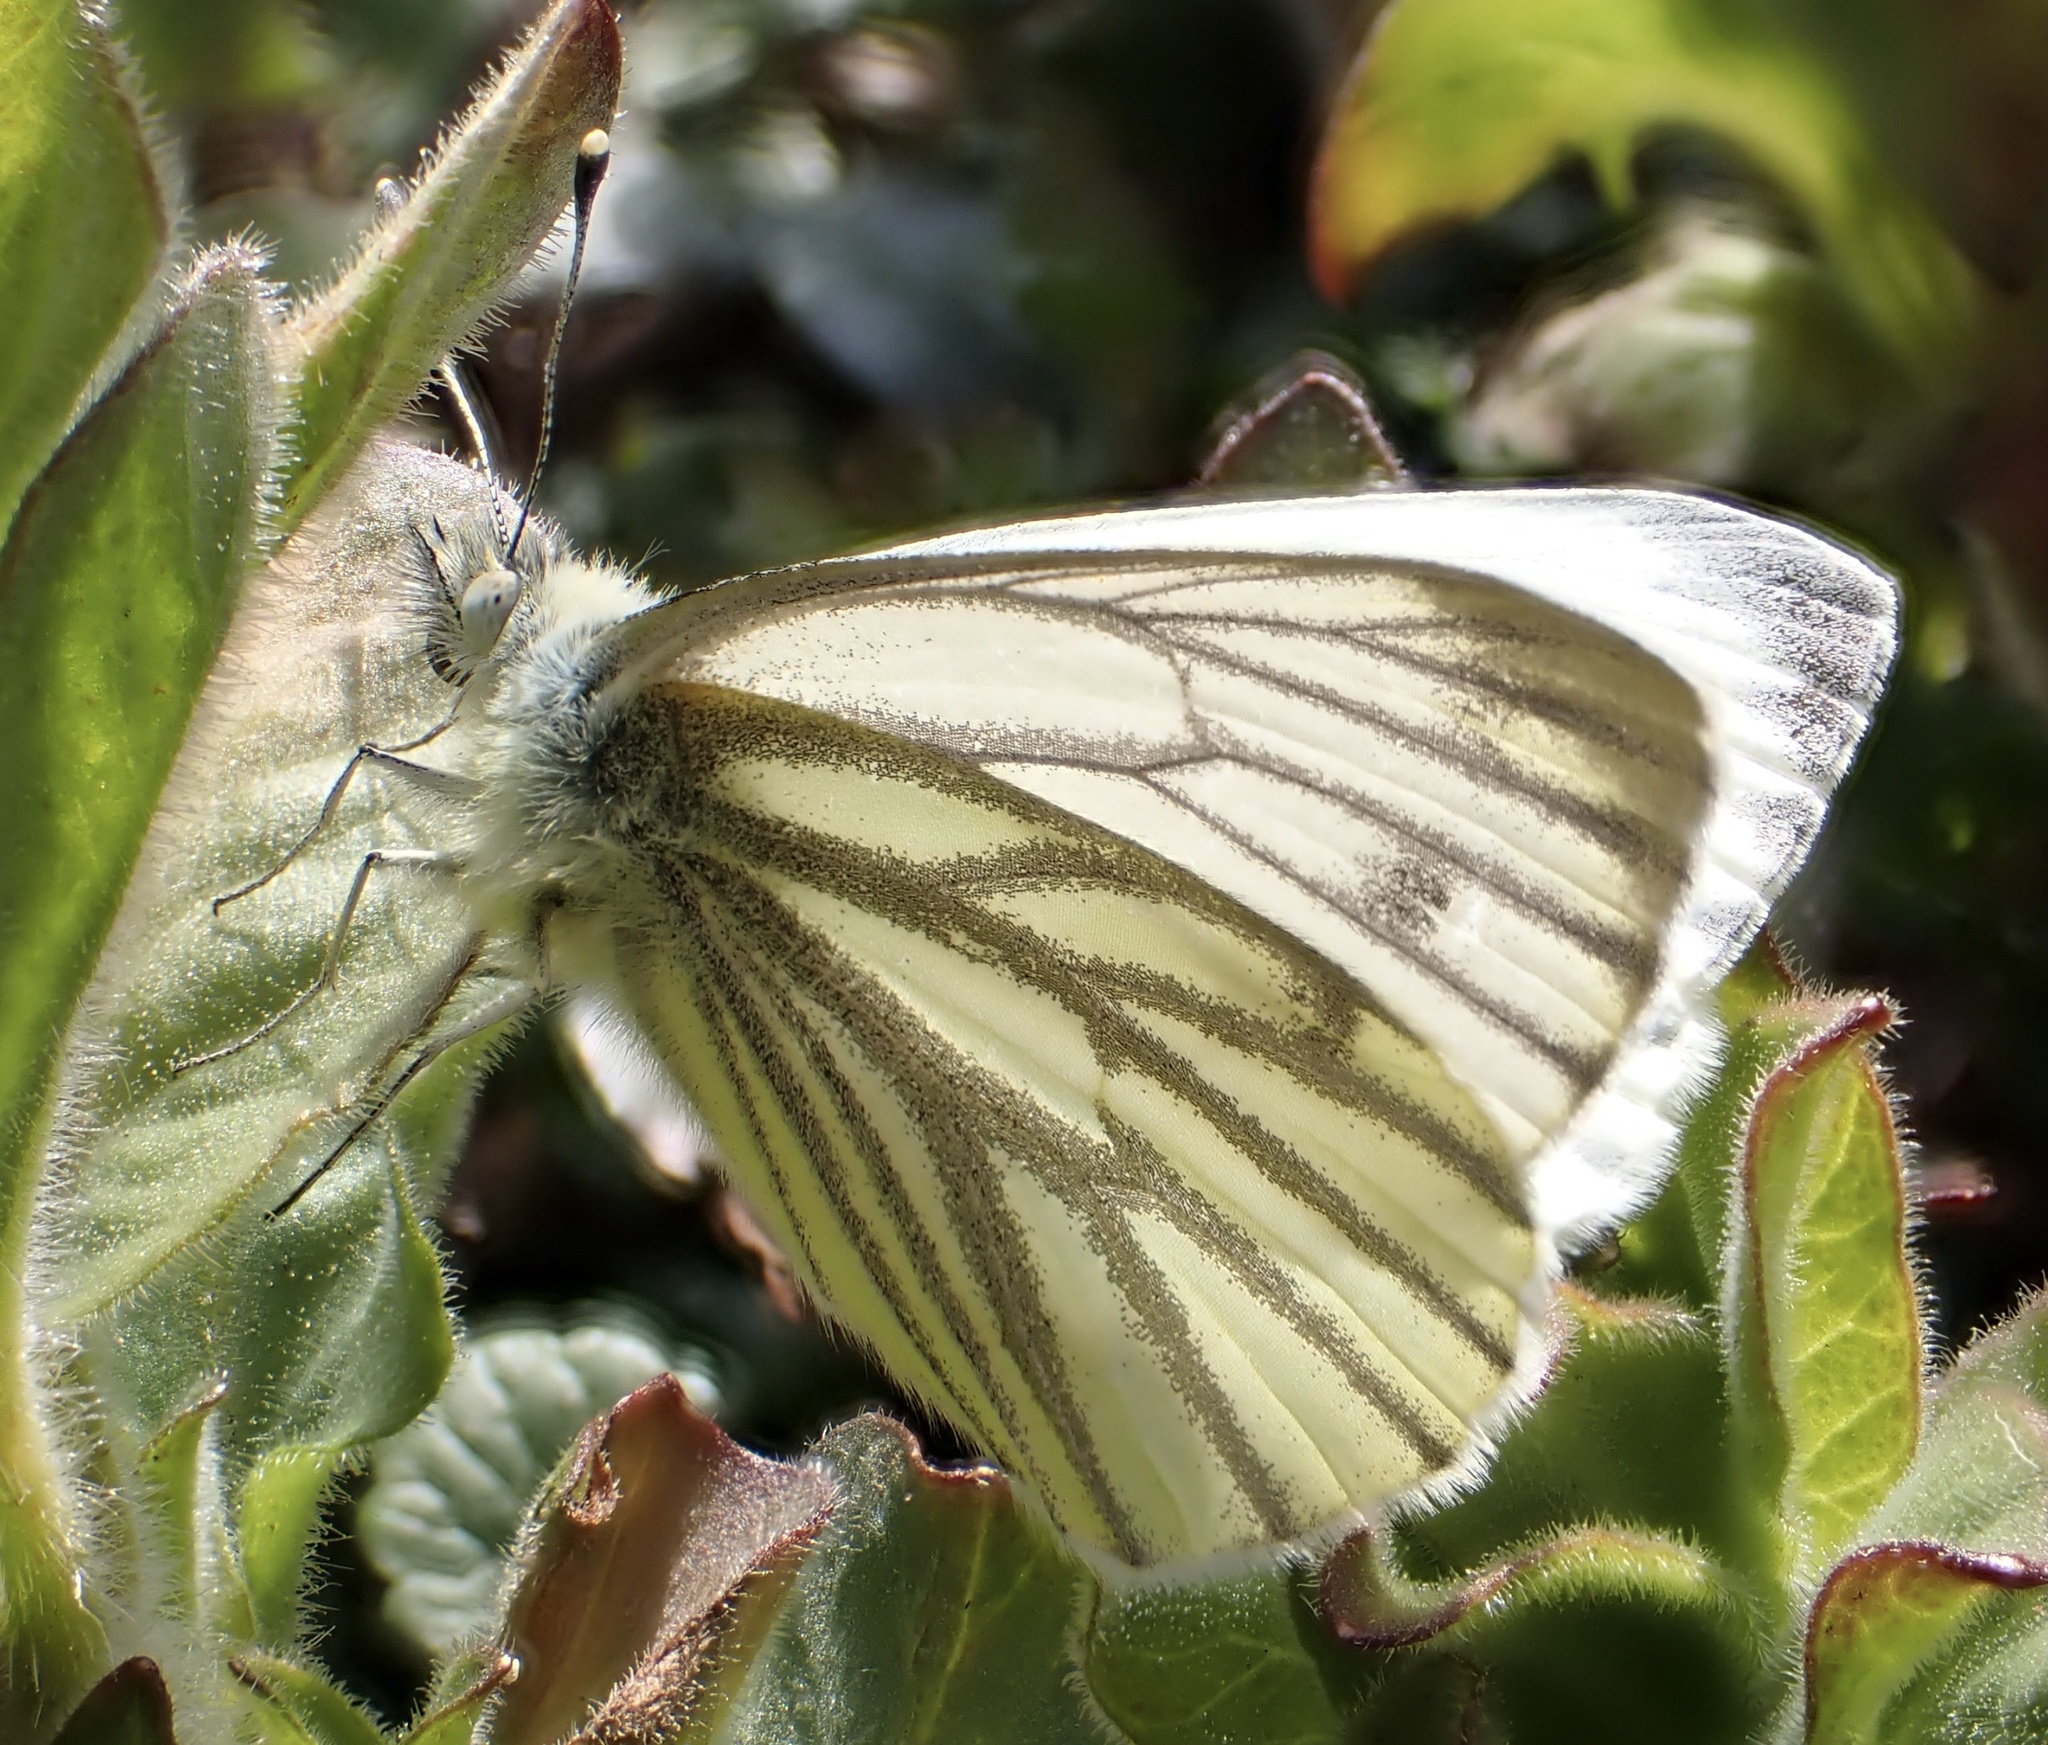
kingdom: Animalia
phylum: Arthropoda
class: Insecta
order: Lepidoptera
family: Pieridae
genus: Pieris
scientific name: Pieris napi
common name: Green-veined white
